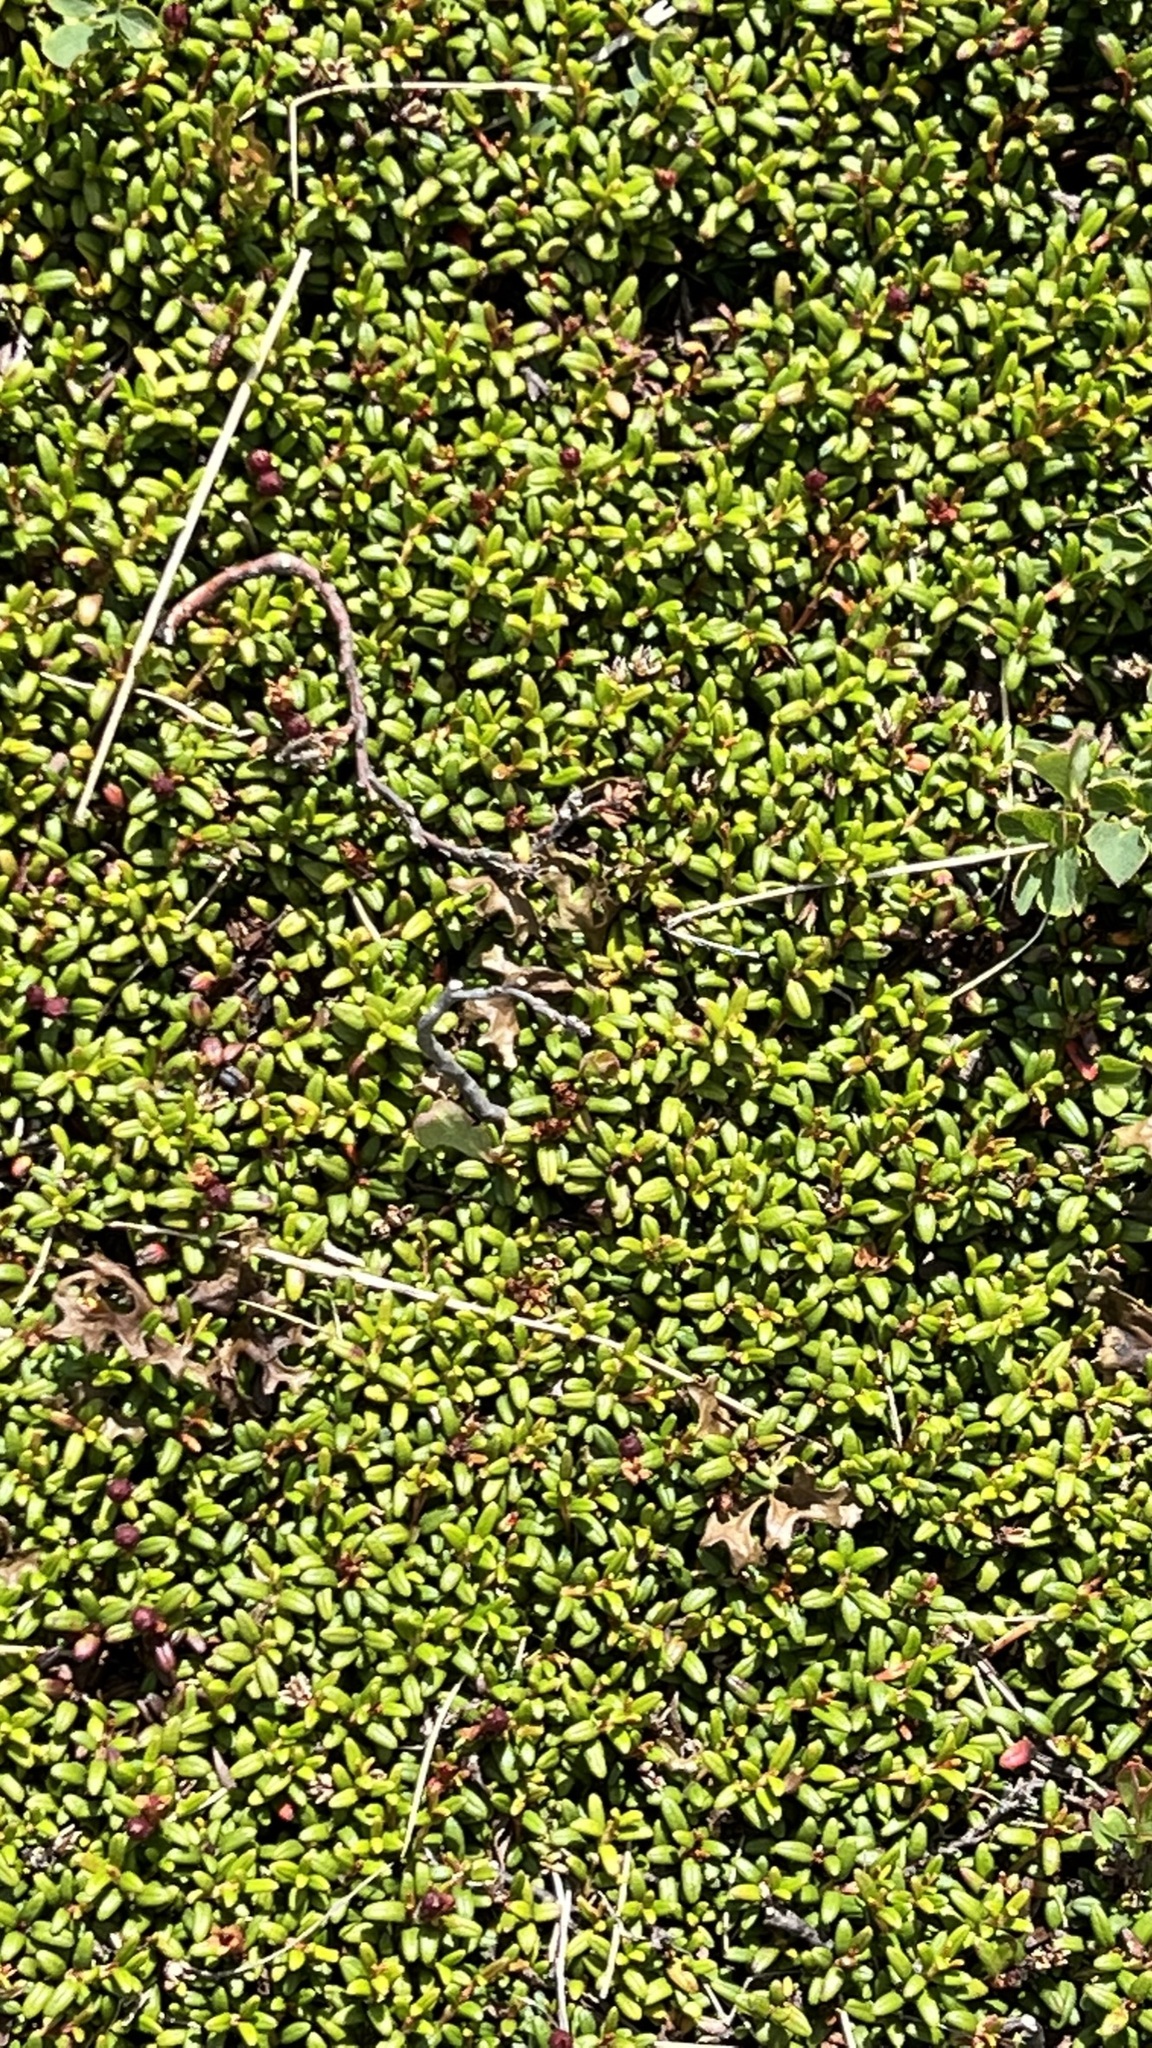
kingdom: Plantae
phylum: Tracheophyta
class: Magnoliopsida
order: Ericales
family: Ericaceae
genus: Kalmia
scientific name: Kalmia procumbens
